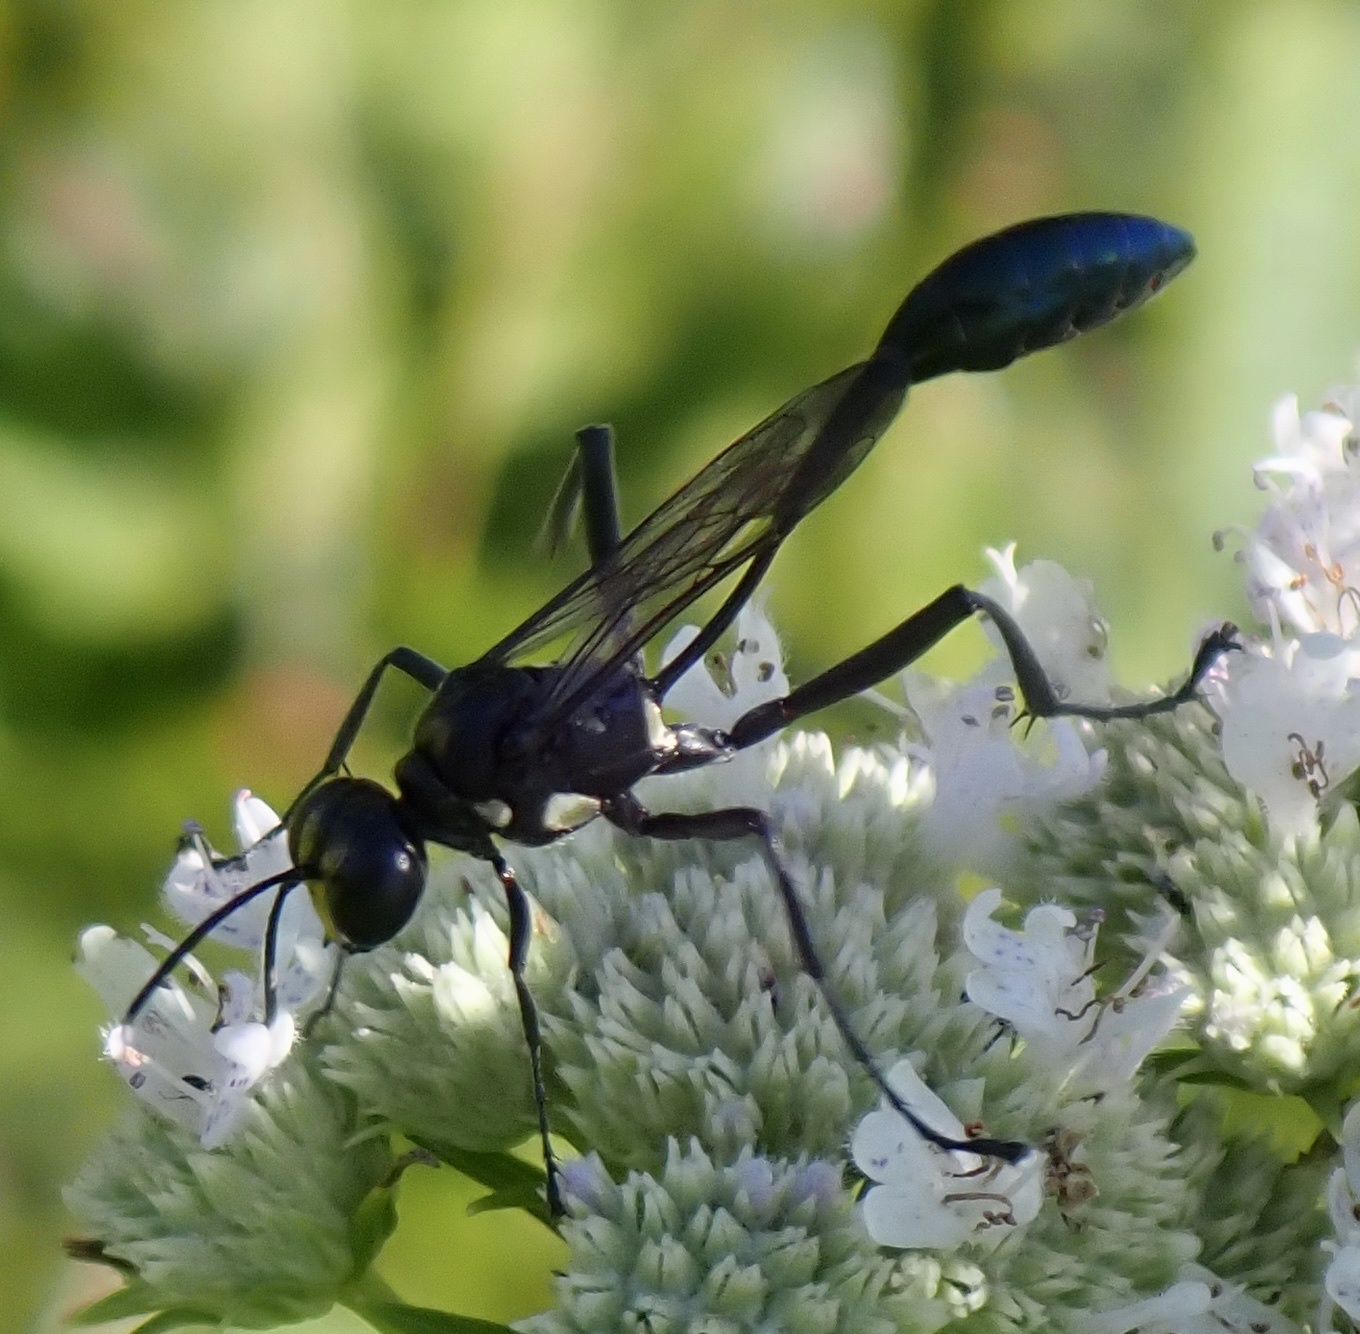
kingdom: Animalia
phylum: Arthropoda
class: Insecta
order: Hymenoptera
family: Sphecidae
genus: Eremnophila
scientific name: Eremnophila aureonotata
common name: Gold-marked thread-waisted wasp
